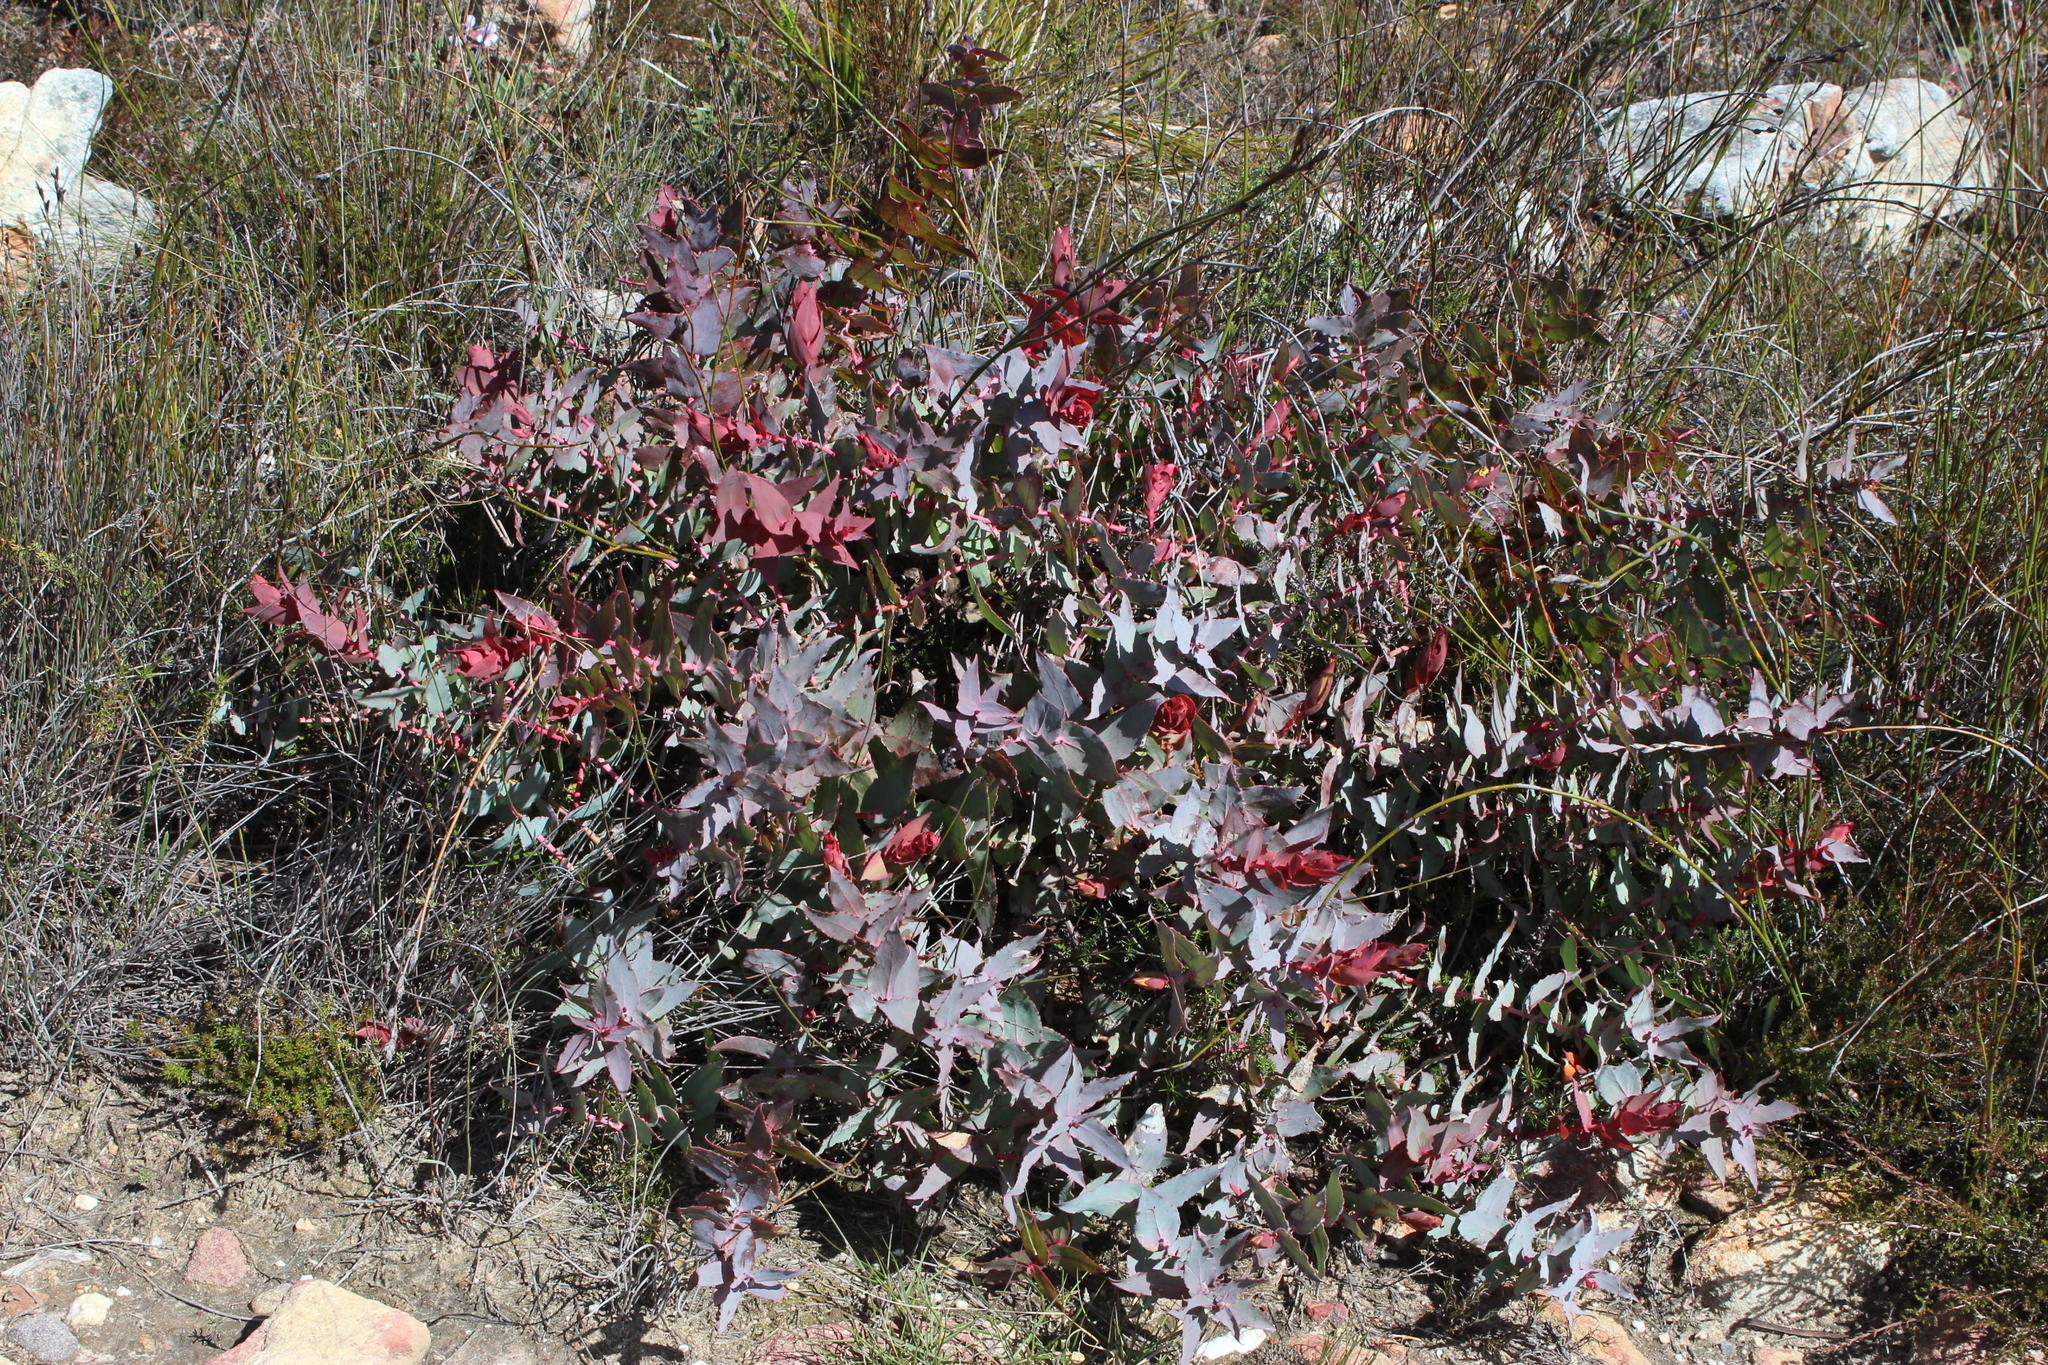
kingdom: Plantae
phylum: Tracheophyta
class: Magnoliopsida
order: Proteales
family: Proteaceae
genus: Protea
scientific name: Protea amplexicaulis
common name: Clasping-leaf sugarbush
